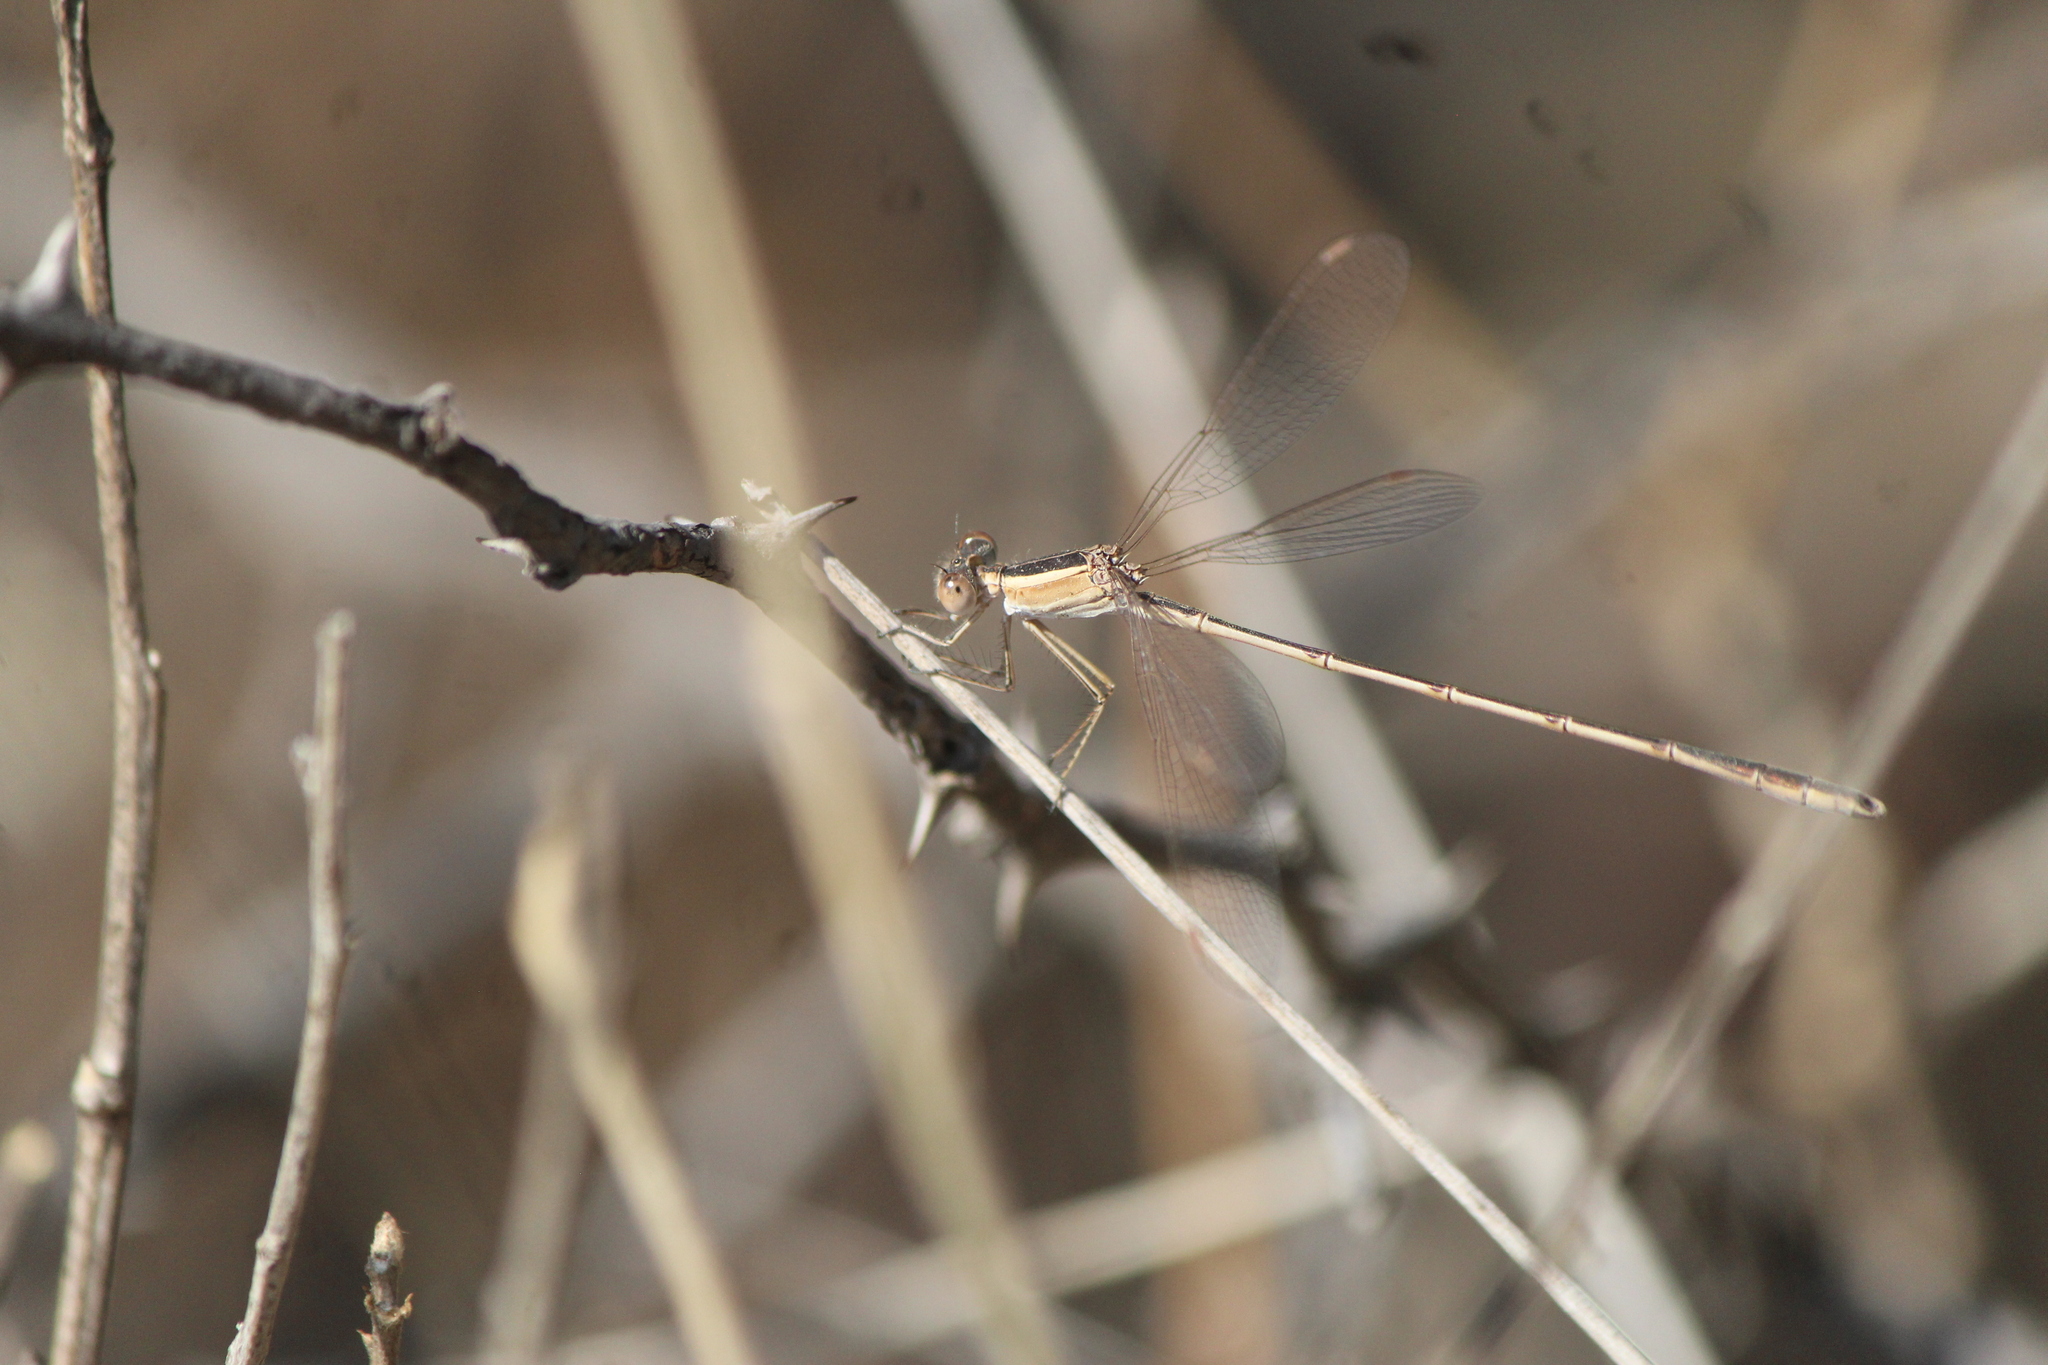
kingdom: Animalia
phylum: Arthropoda
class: Insecta
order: Odonata
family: Lestidae
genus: Lestes
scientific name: Lestes alacer
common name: Plateau spreadwing
